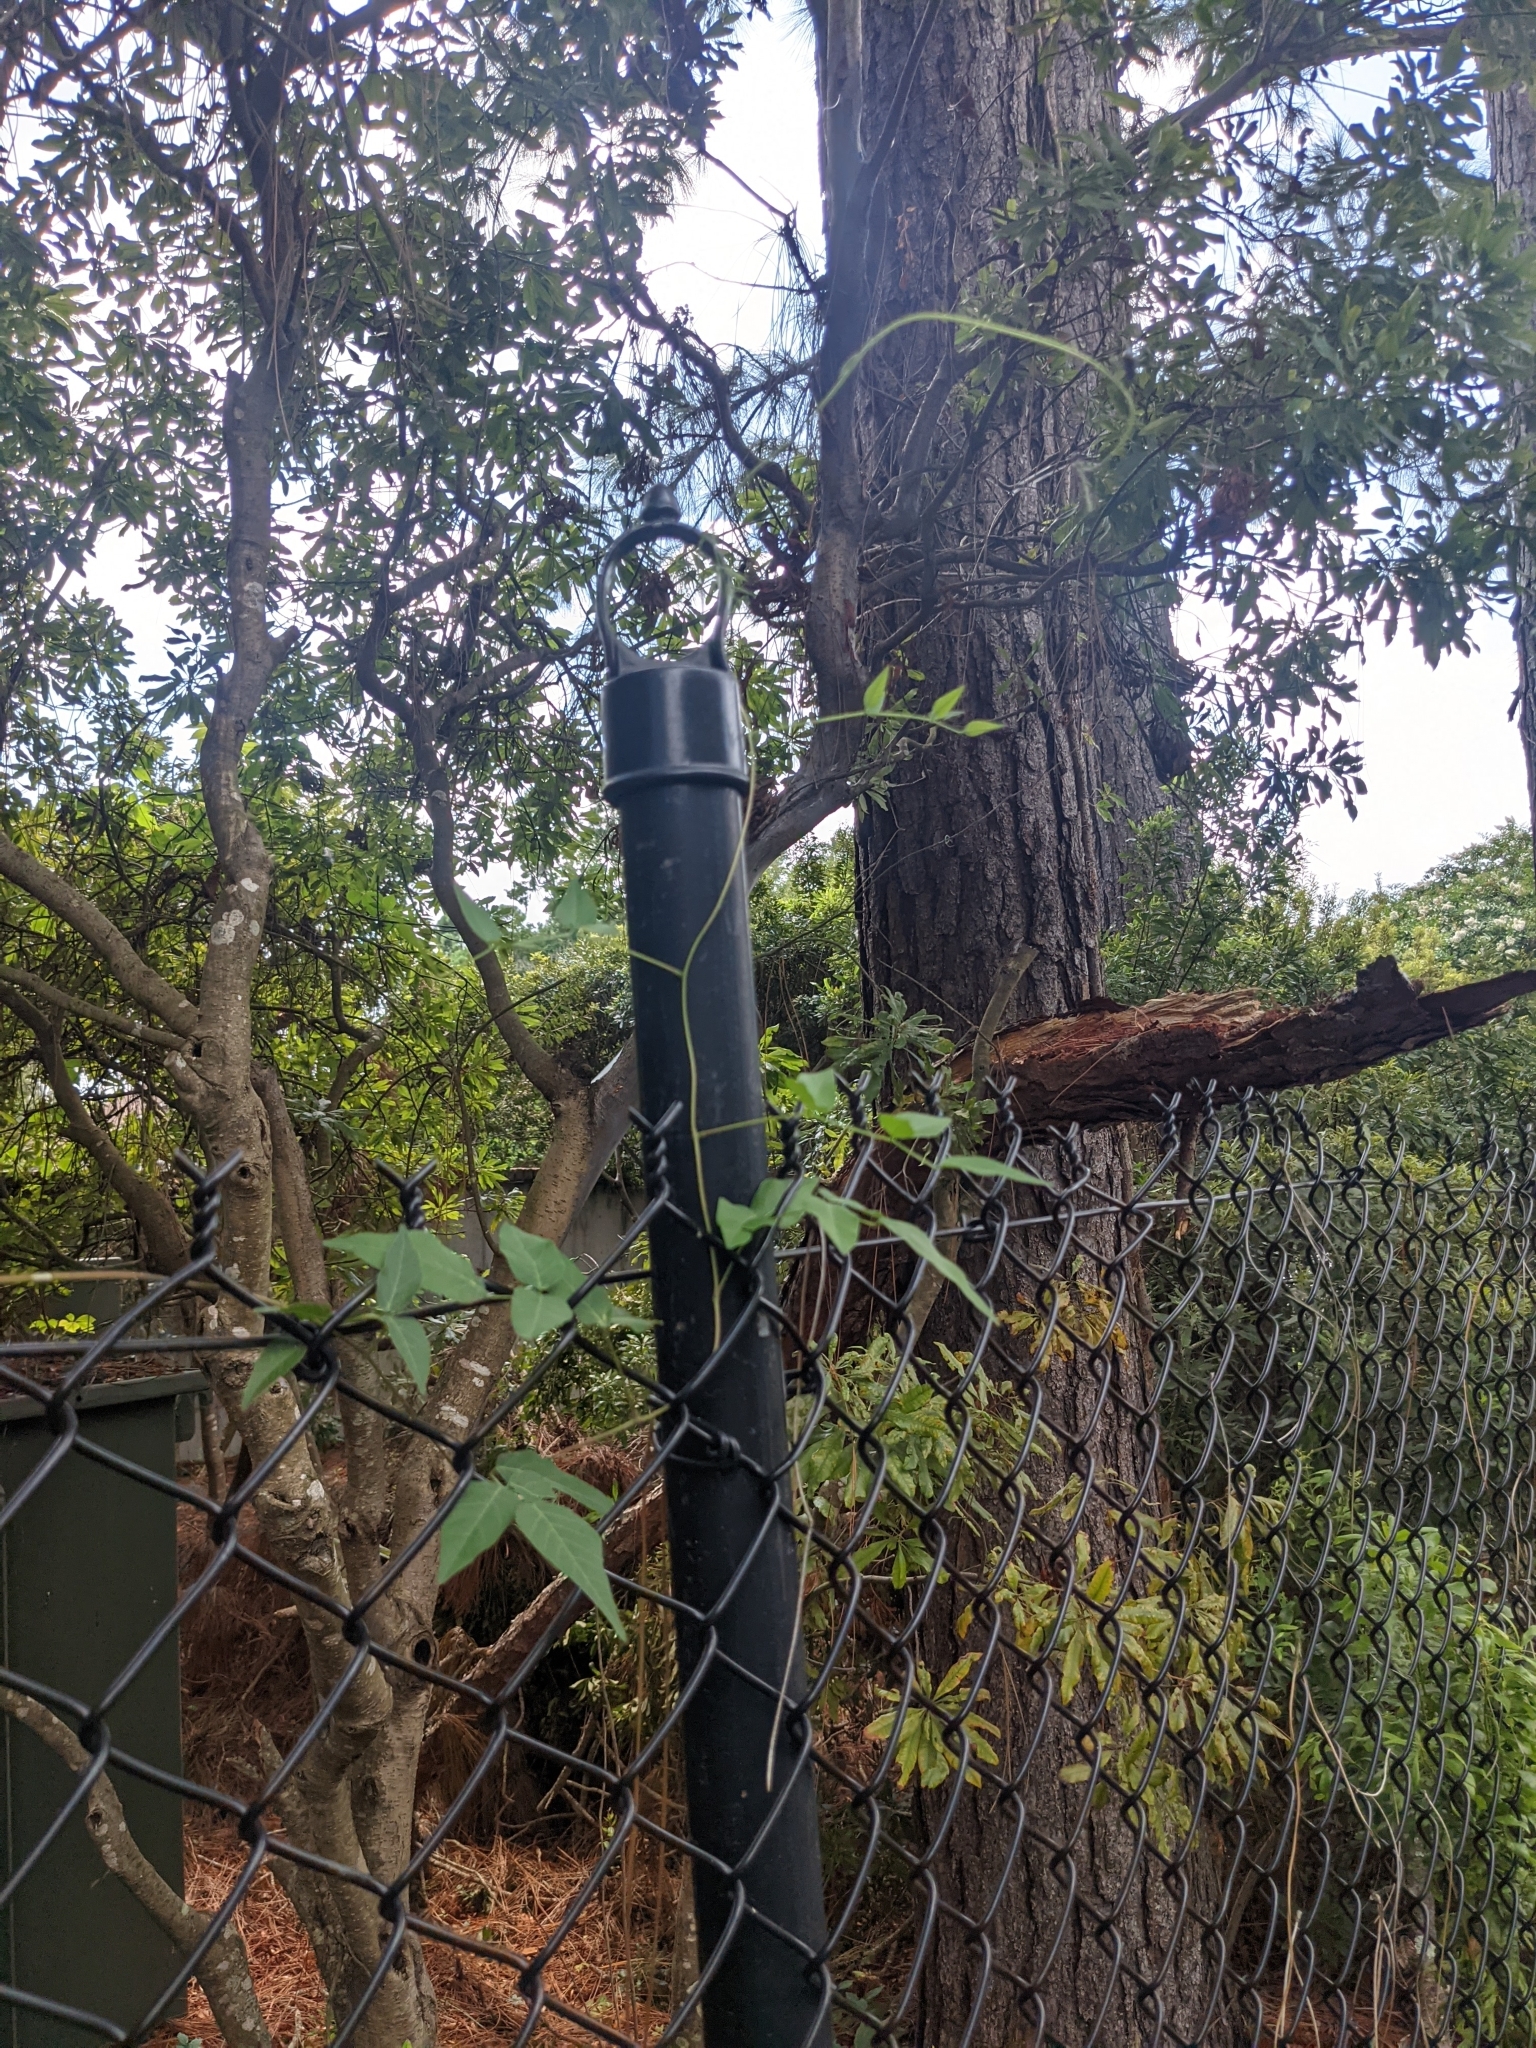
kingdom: Plantae
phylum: Tracheophyta
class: Magnoliopsida
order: Fabales
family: Fabaceae
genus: Apios
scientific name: Apios americana
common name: American potato-bean
